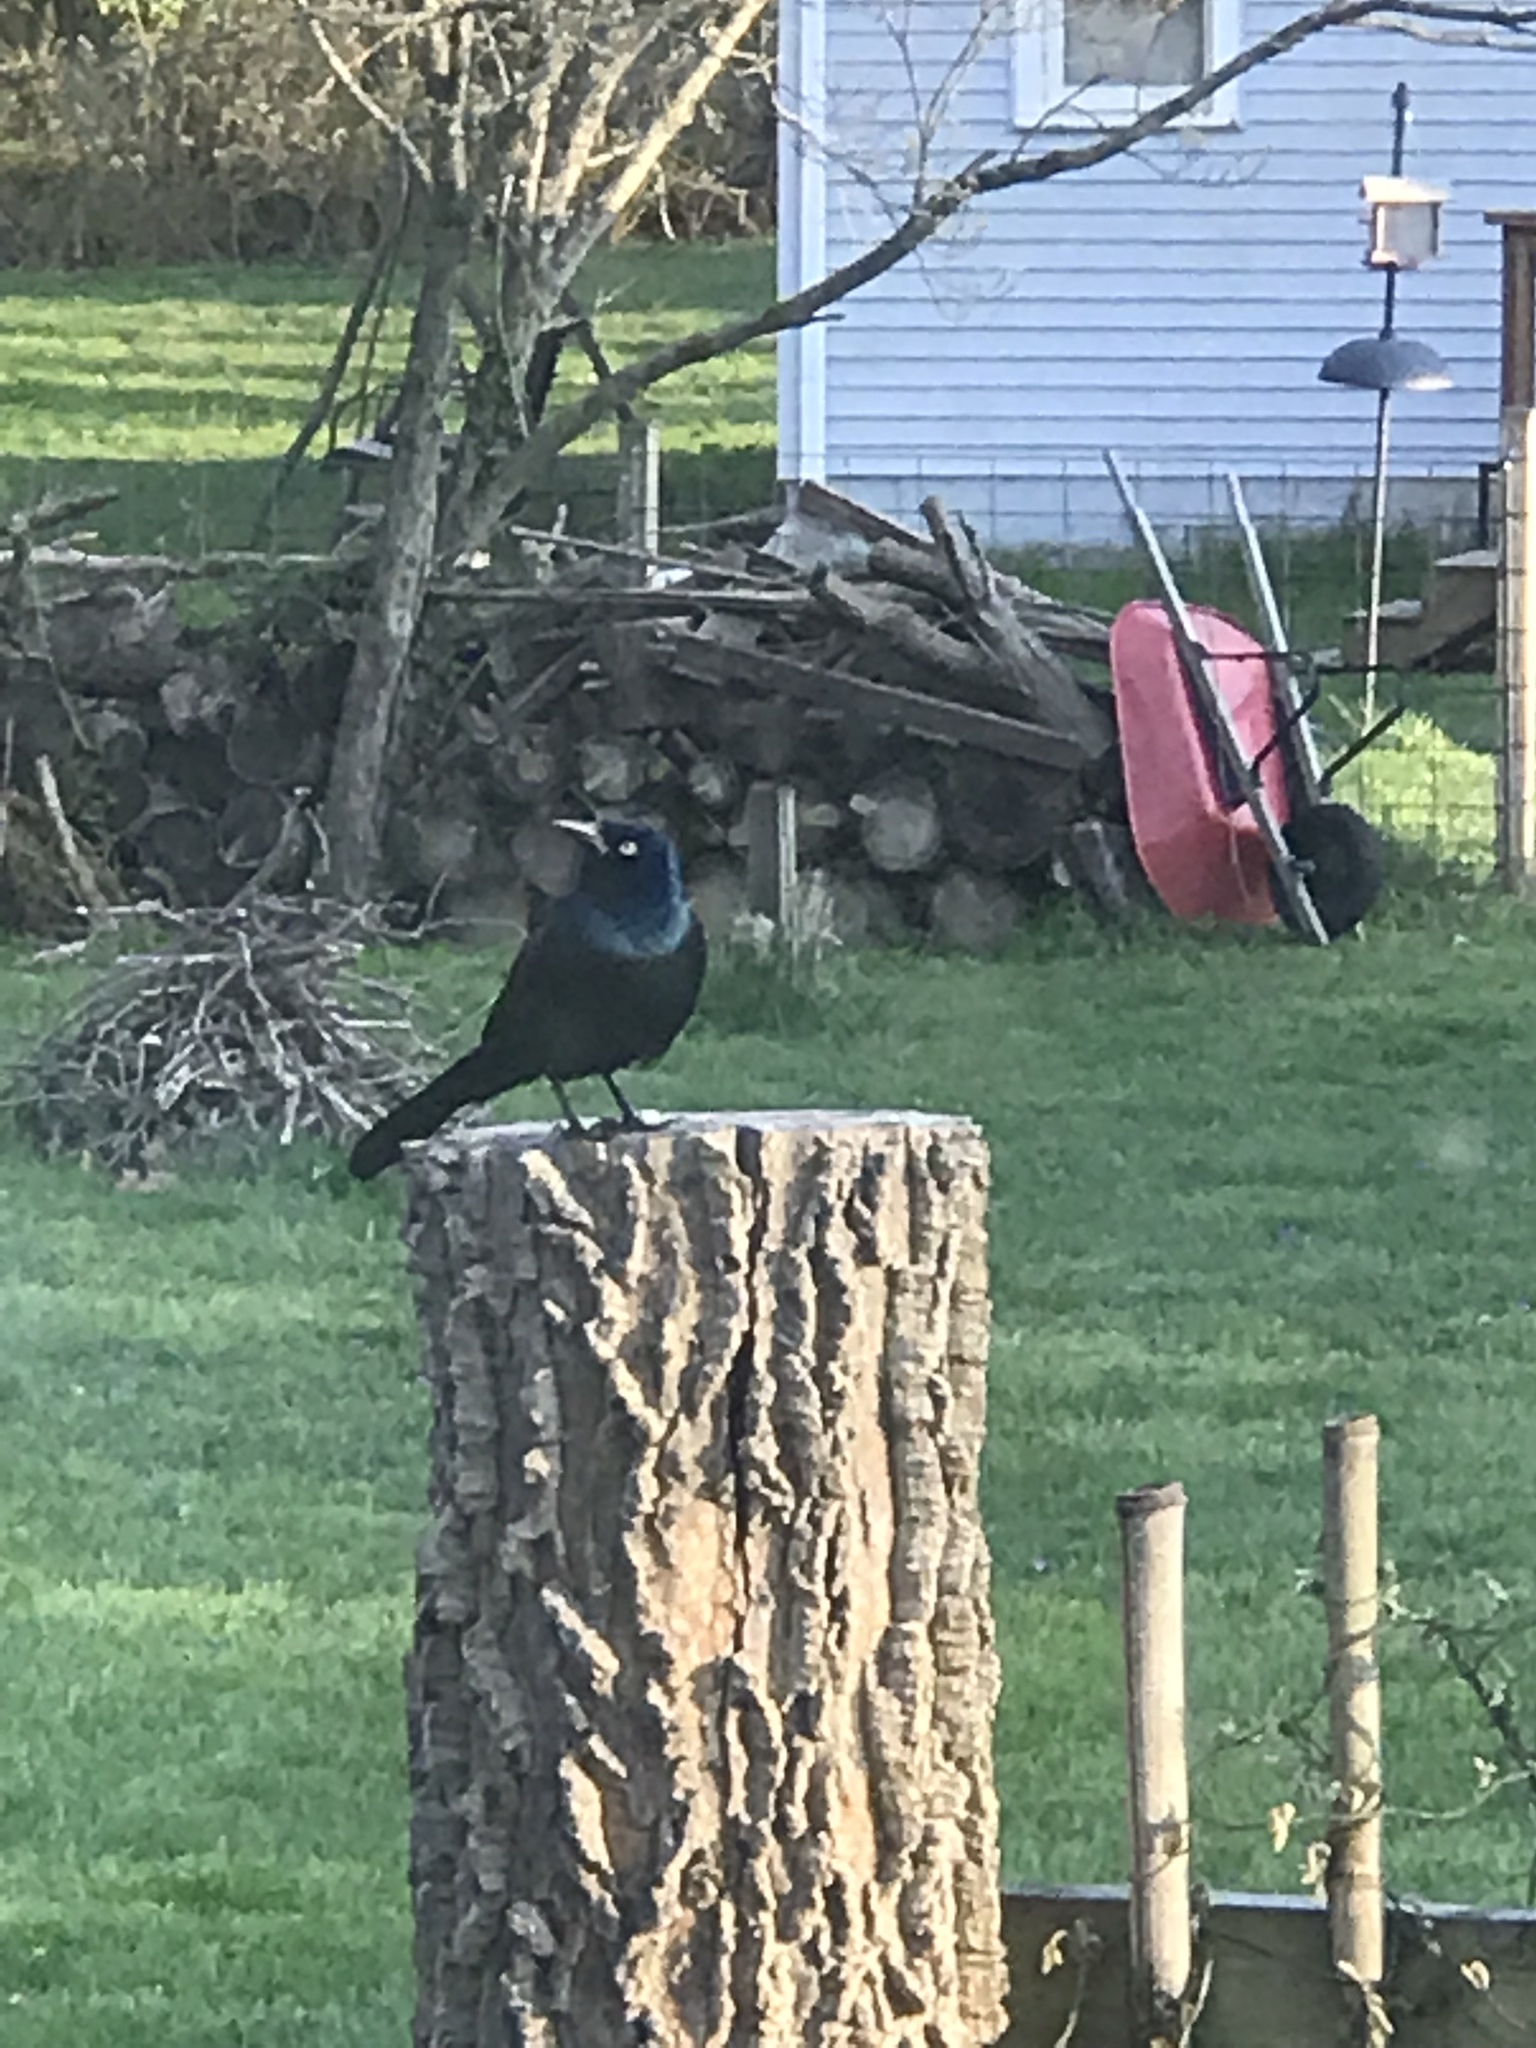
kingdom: Animalia
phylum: Chordata
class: Aves
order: Passeriformes
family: Icteridae
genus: Quiscalus
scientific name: Quiscalus quiscula
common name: Common grackle
